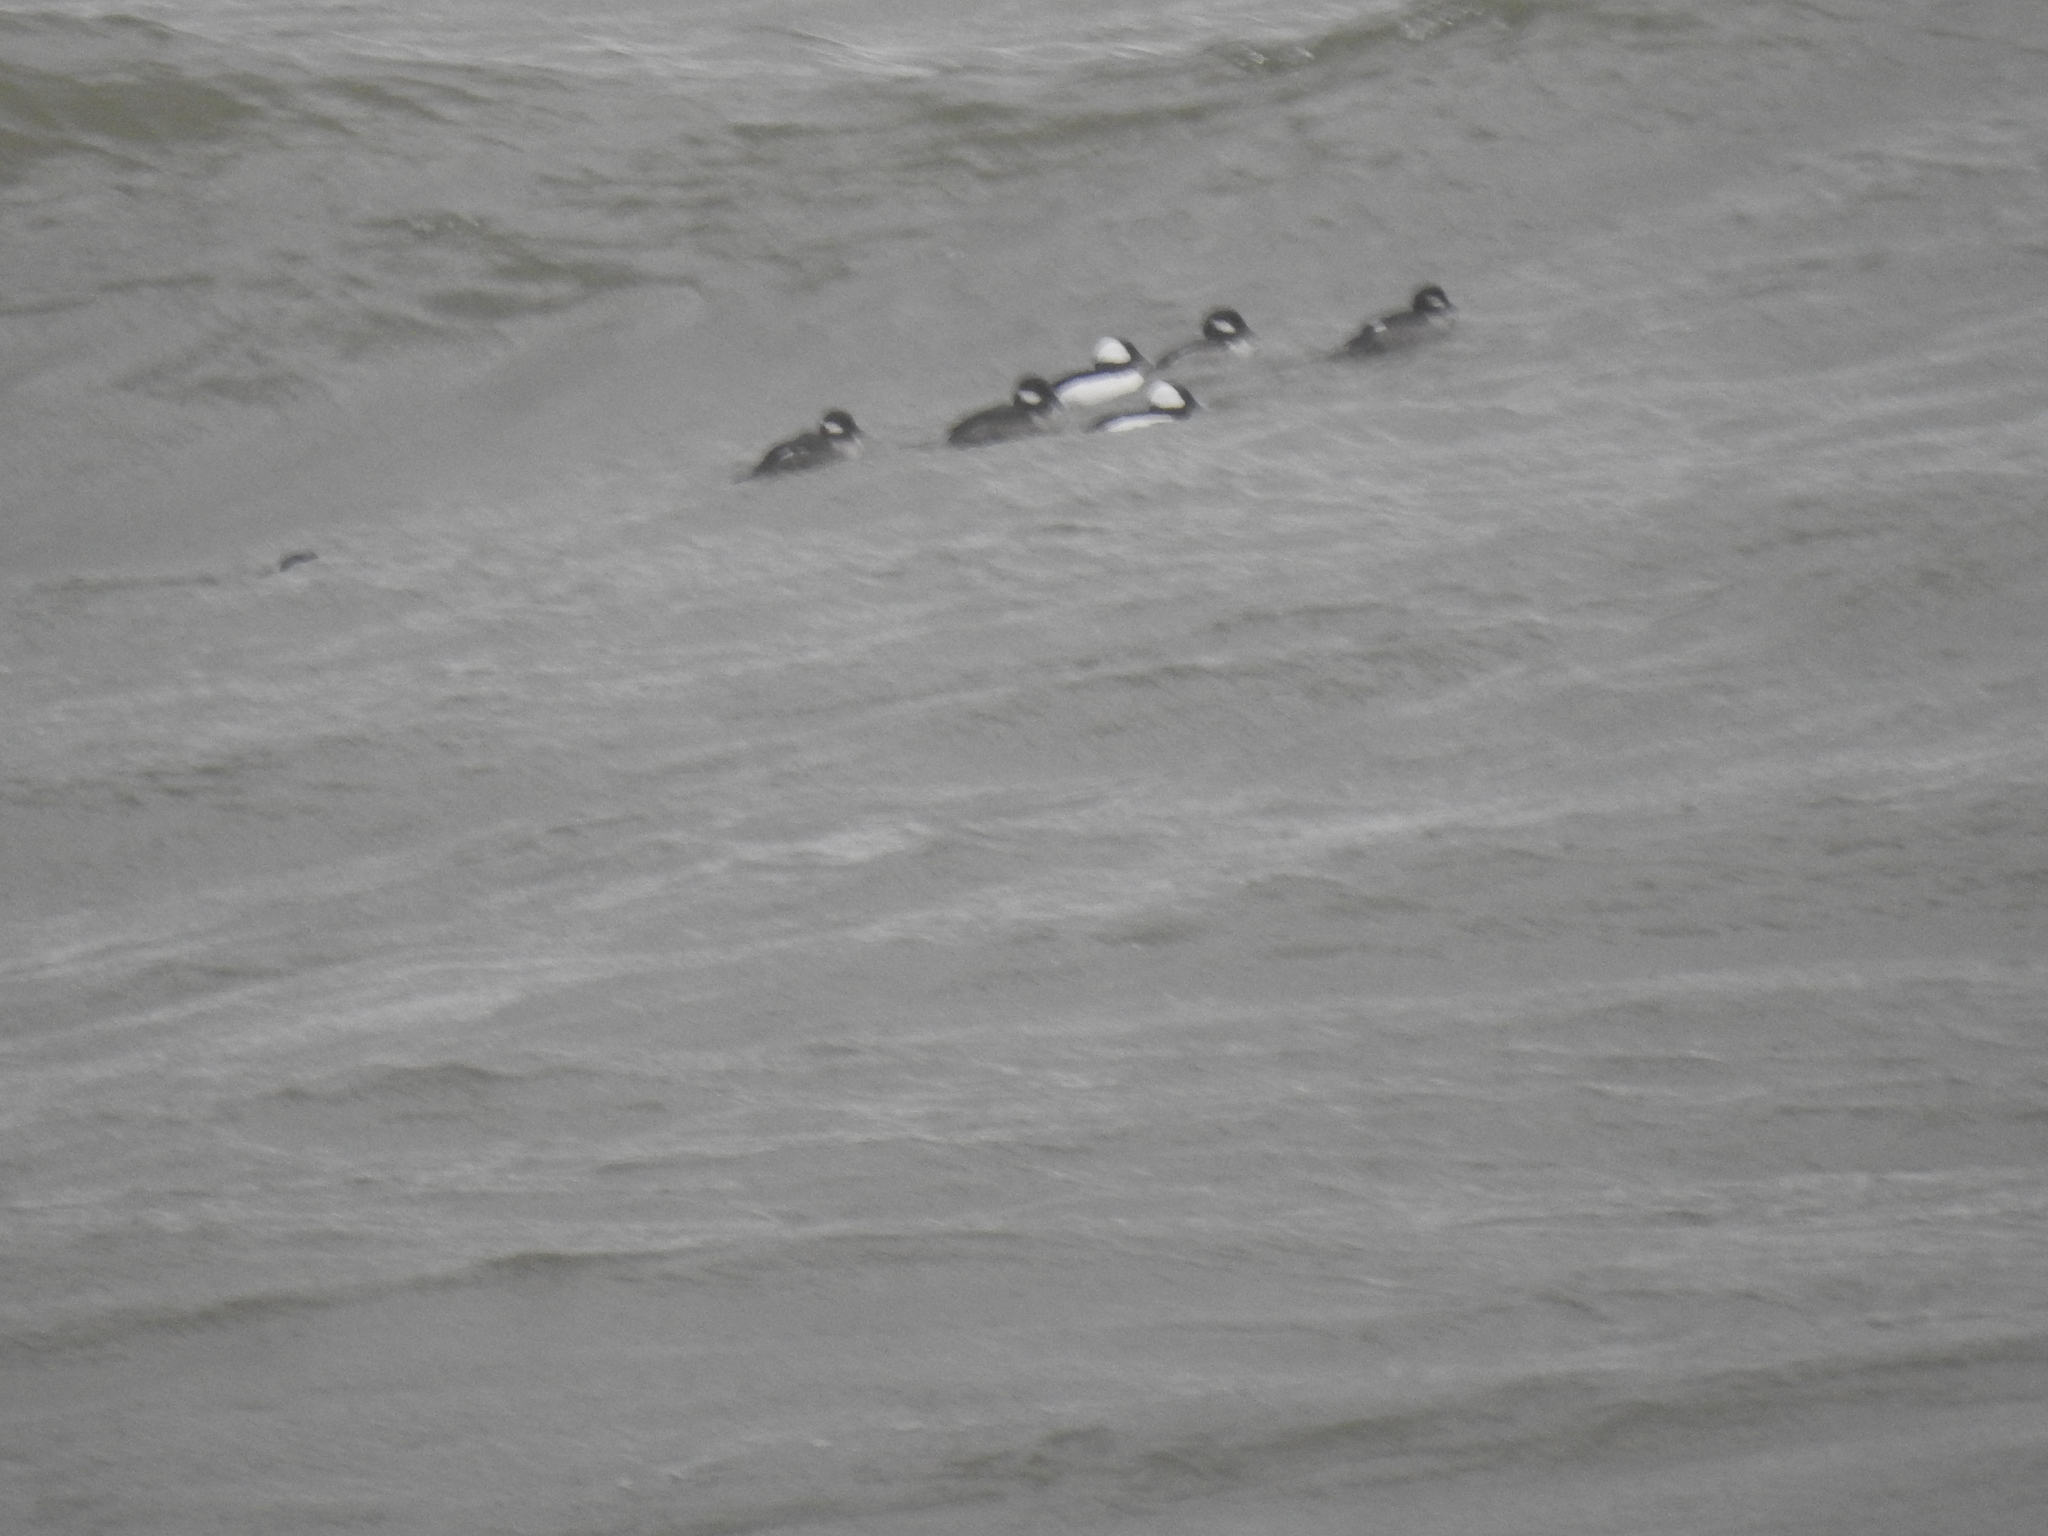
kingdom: Animalia
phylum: Chordata
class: Aves
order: Anseriformes
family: Anatidae
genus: Bucephala
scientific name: Bucephala albeola
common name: Bufflehead
